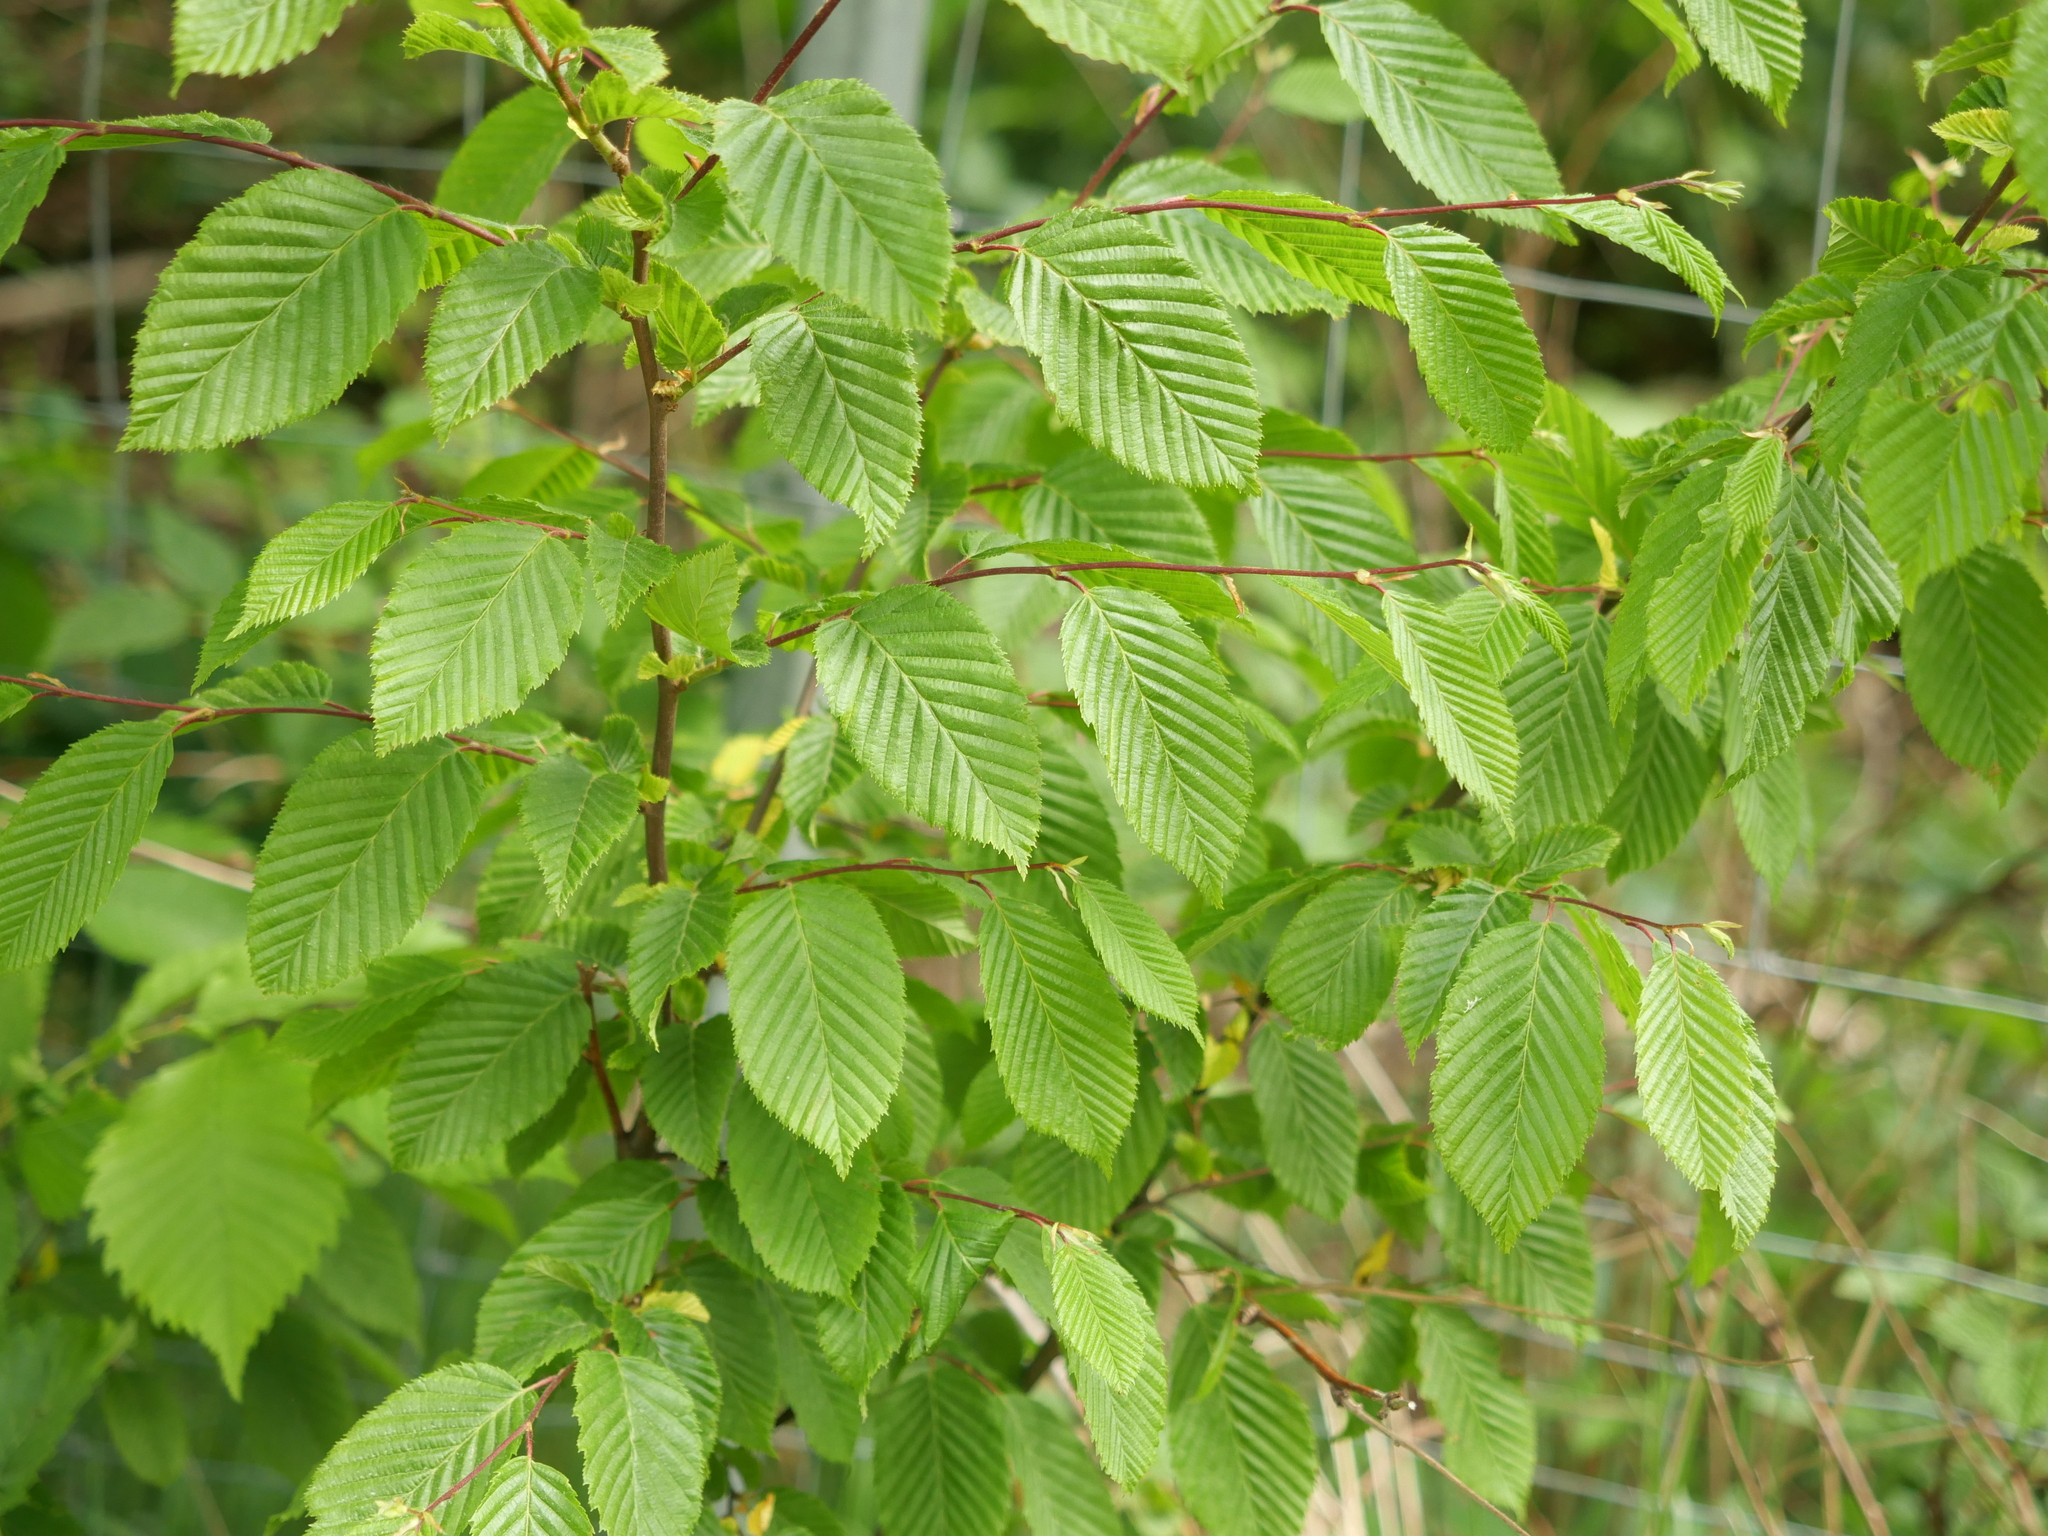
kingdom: Plantae
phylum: Tracheophyta
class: Magnoliopsida
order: Fagales
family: Betulaceae
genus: Carpinus
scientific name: Carpinus betulus
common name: Hornbeam
